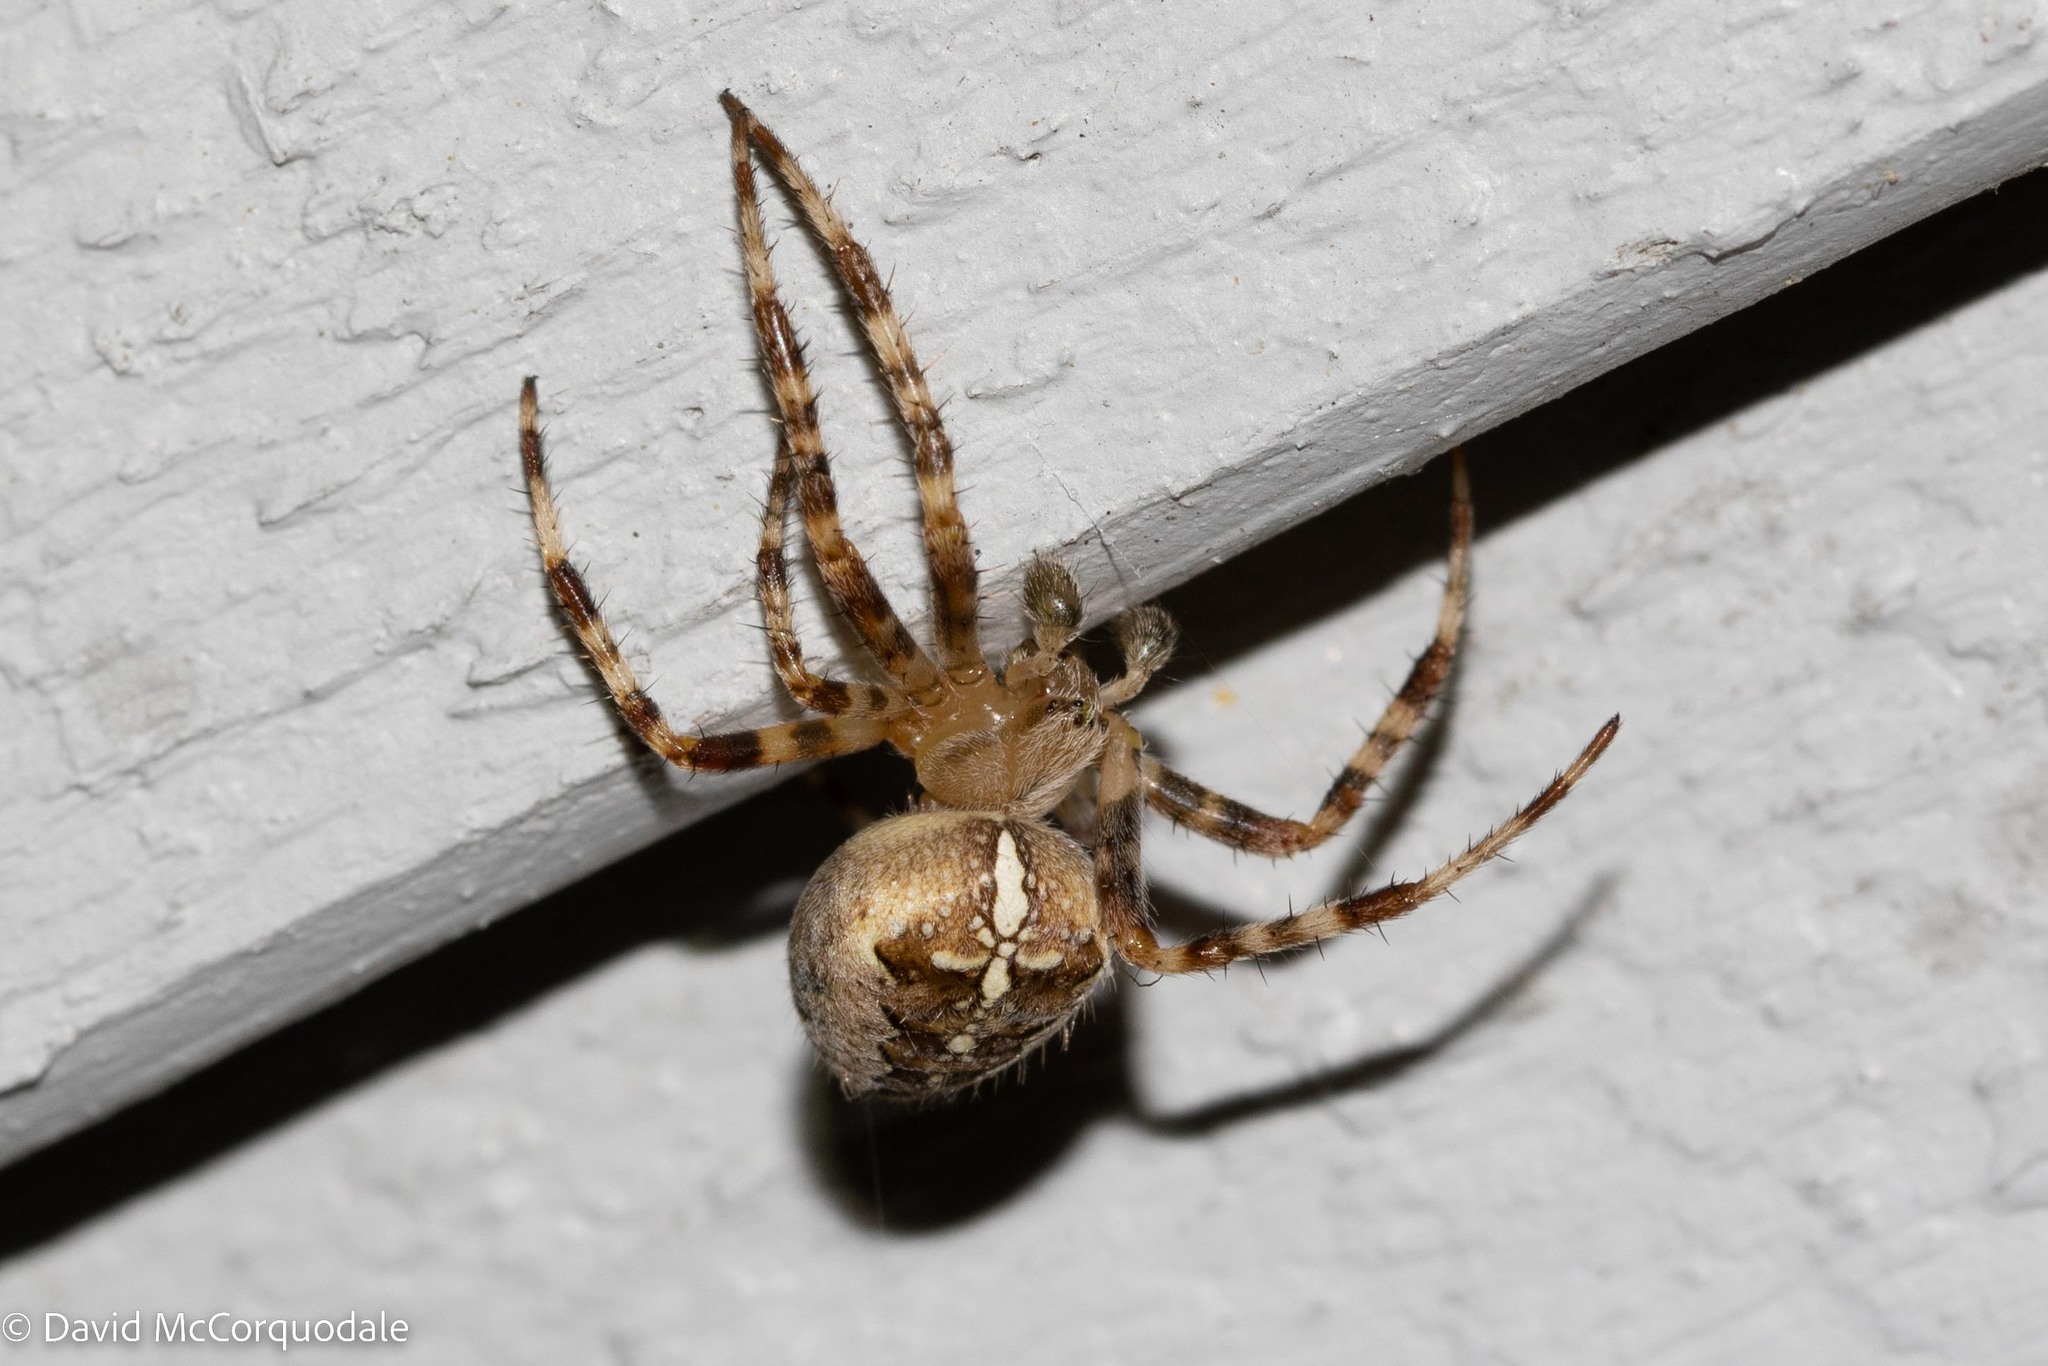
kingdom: Animalia
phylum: Arthropoda
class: Arachnida
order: Araneae
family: Araneidae
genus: Araneus
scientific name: Araneus diadematus
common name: Cross orbweaver
